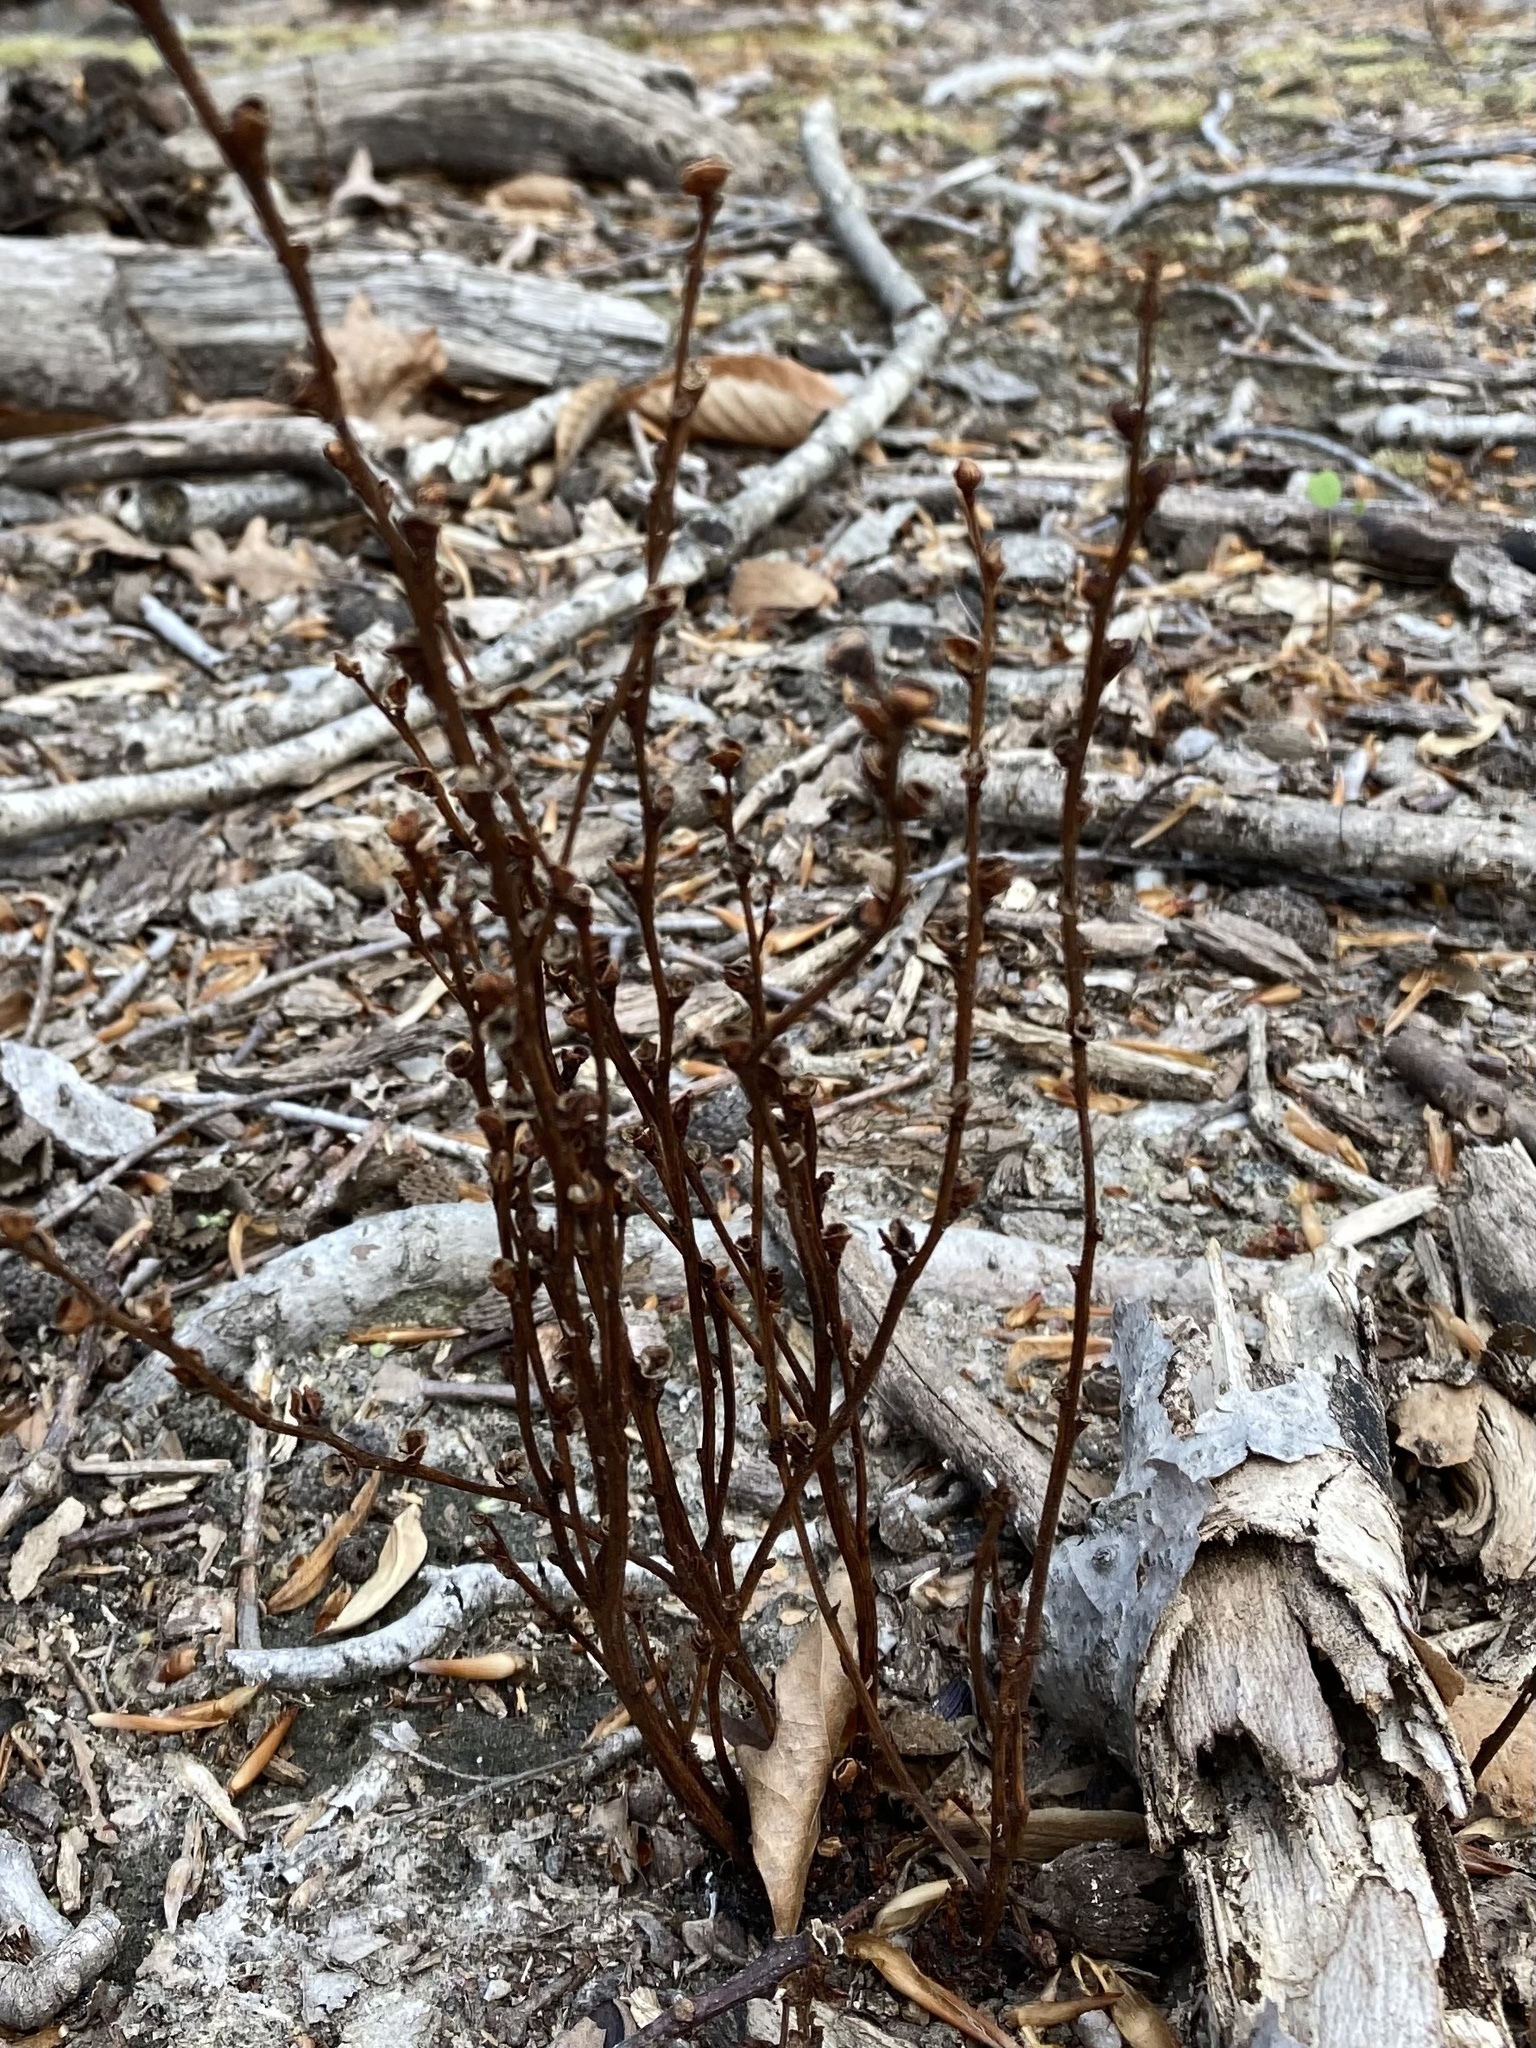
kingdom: Plantae
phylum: Tracheophyta
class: Magnoliopsida
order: Lamiales
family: Orobanchaceae
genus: Epifagus
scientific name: Epifagus virginiana
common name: Beechdrops
